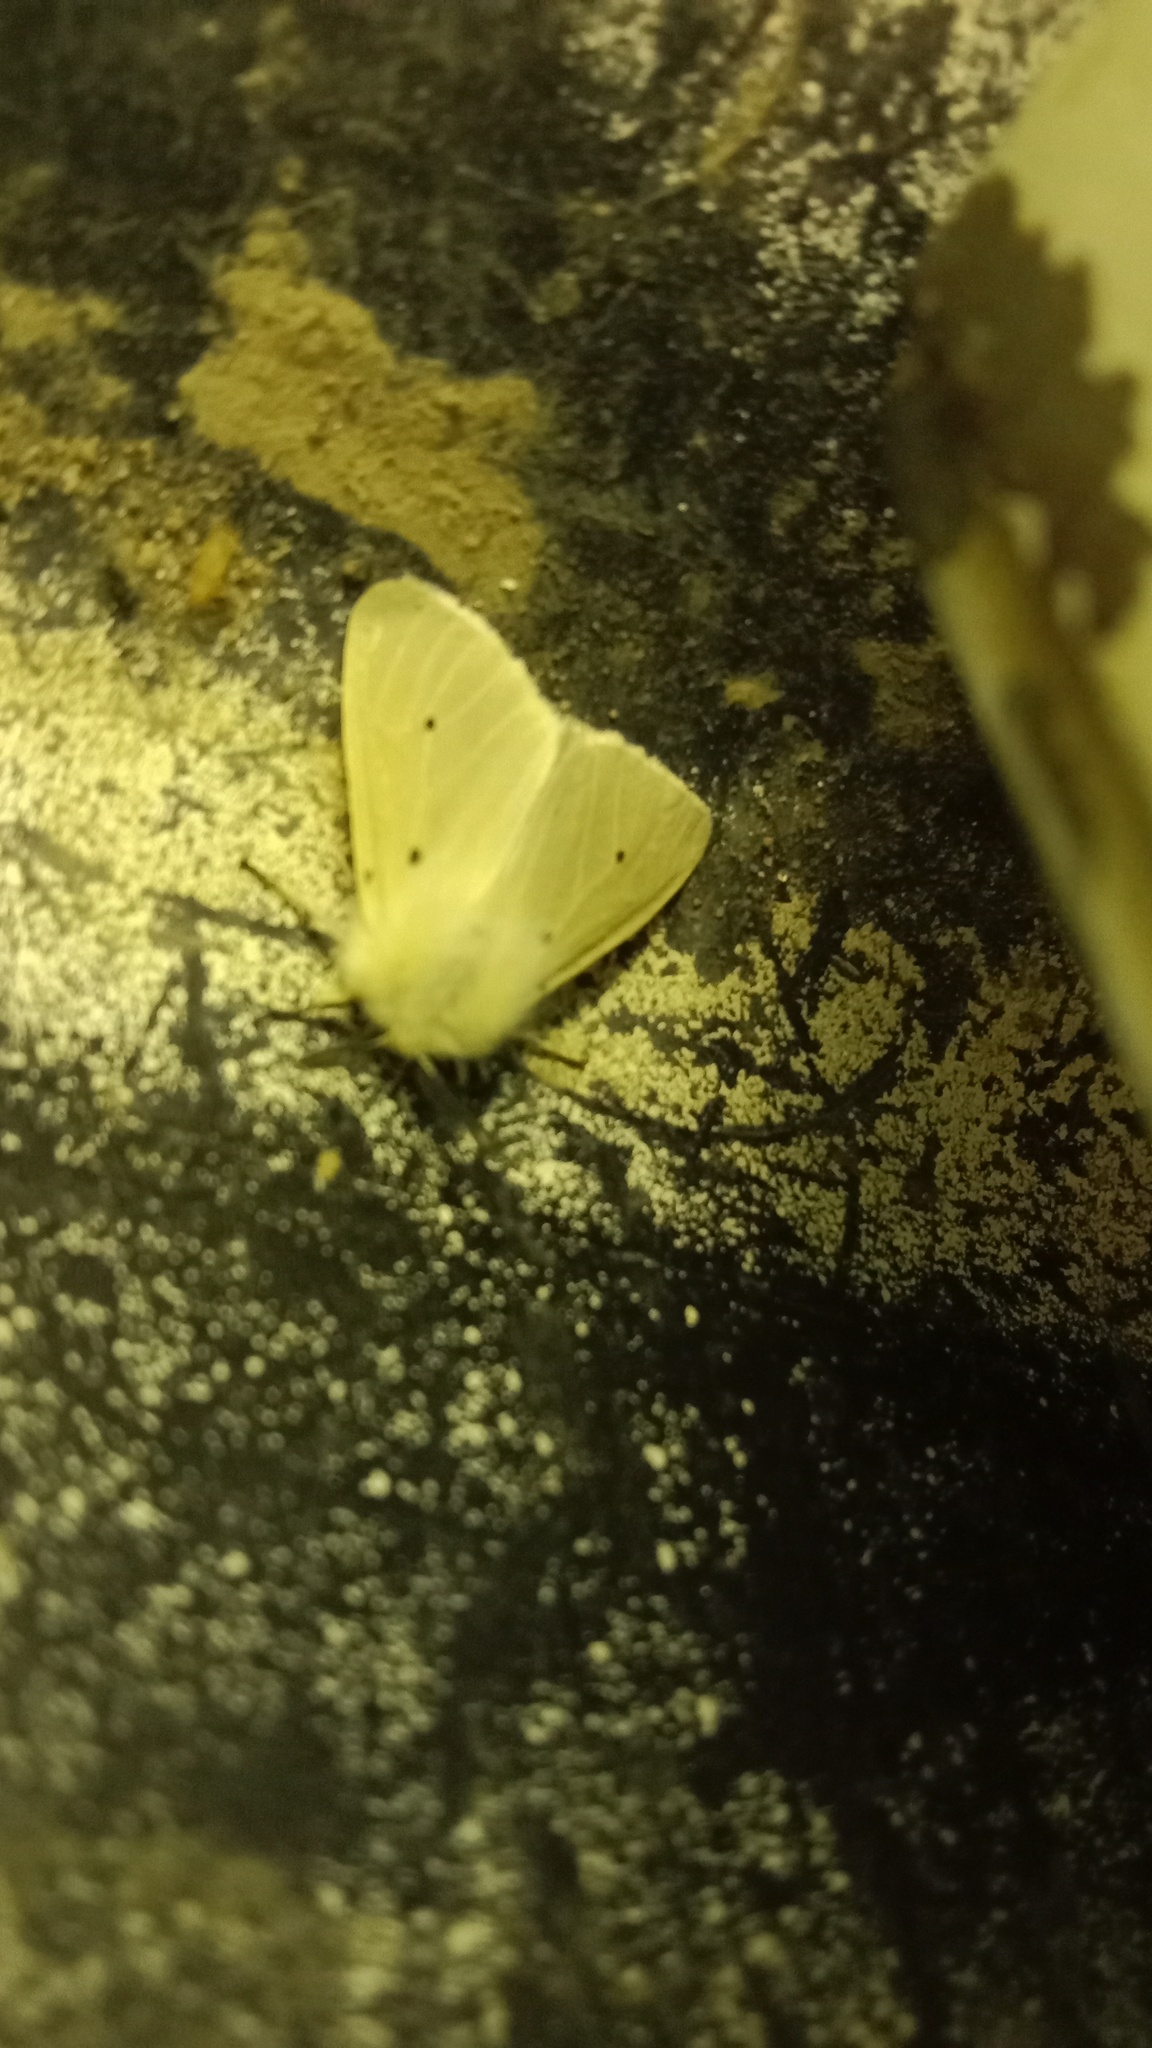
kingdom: Animalia
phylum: Arthropoda
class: Insecta
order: Lepidoptera
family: Erebidae
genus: Diaphora
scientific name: Diaphora mendica
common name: Muslin moth
